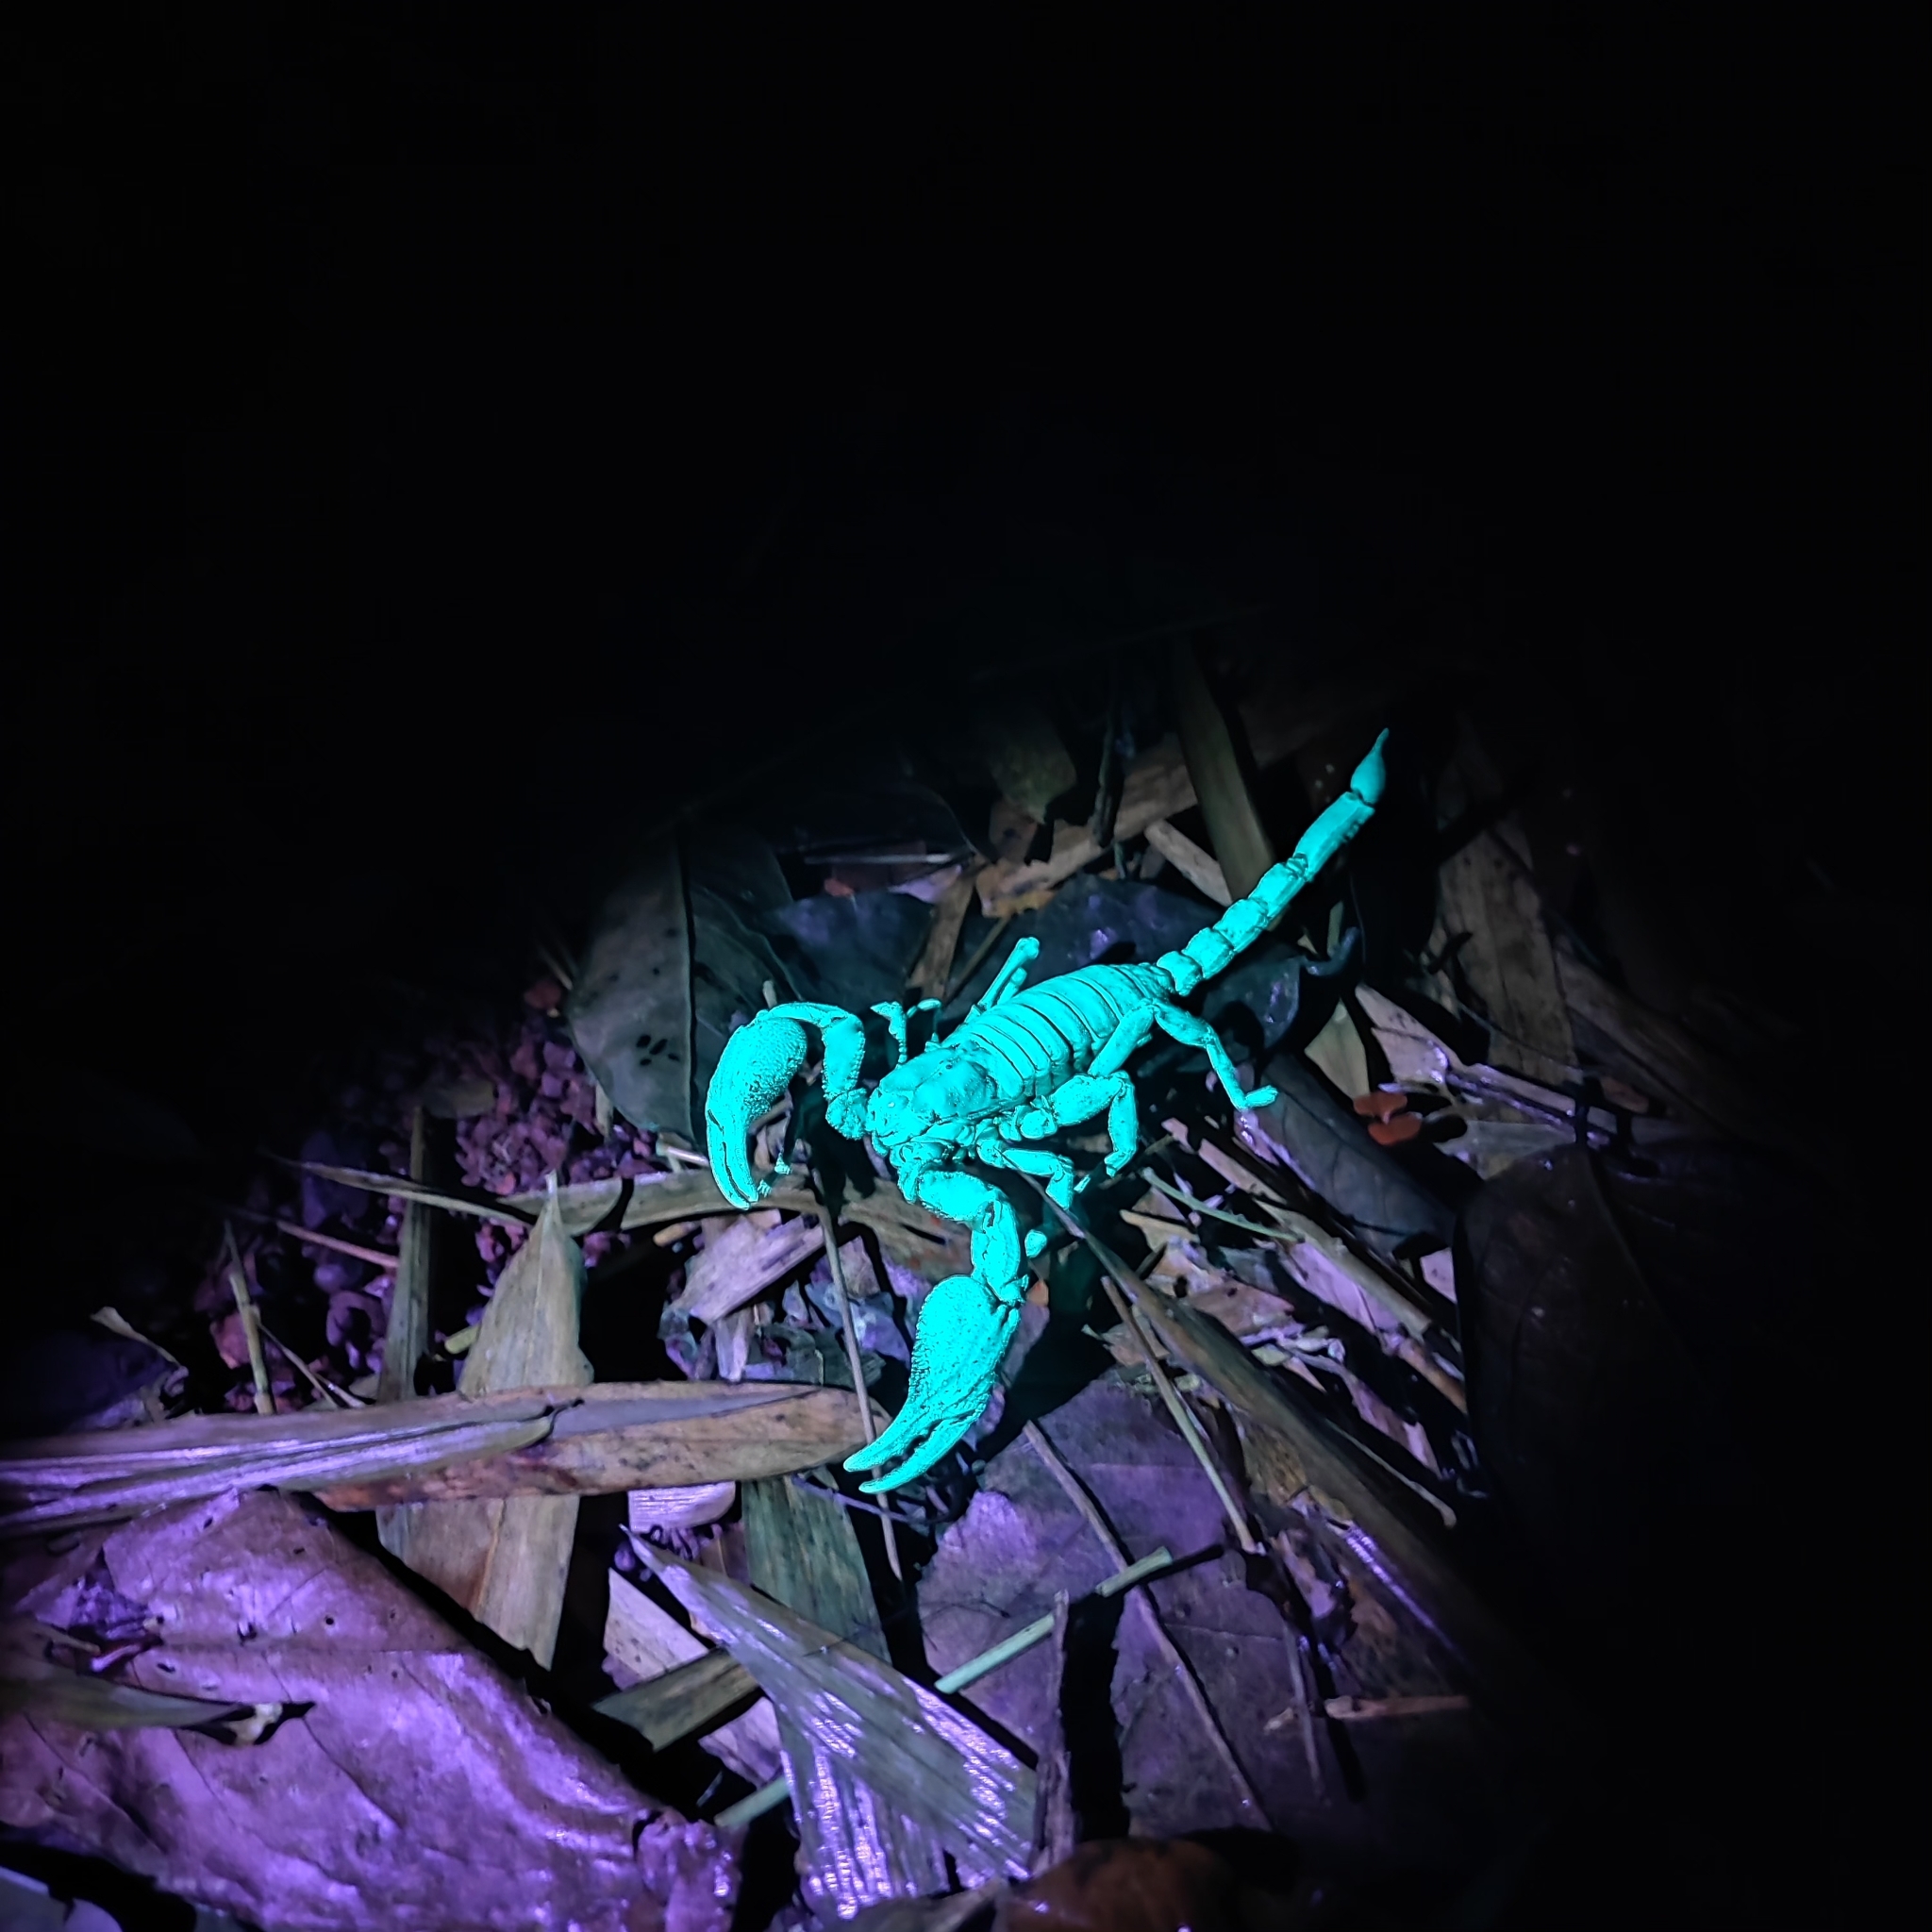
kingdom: Animalia
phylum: Arthropoda
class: Arachnida
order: Scorpiones
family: Scorpionidae
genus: Heterometrus
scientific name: Heterometrus silenus
